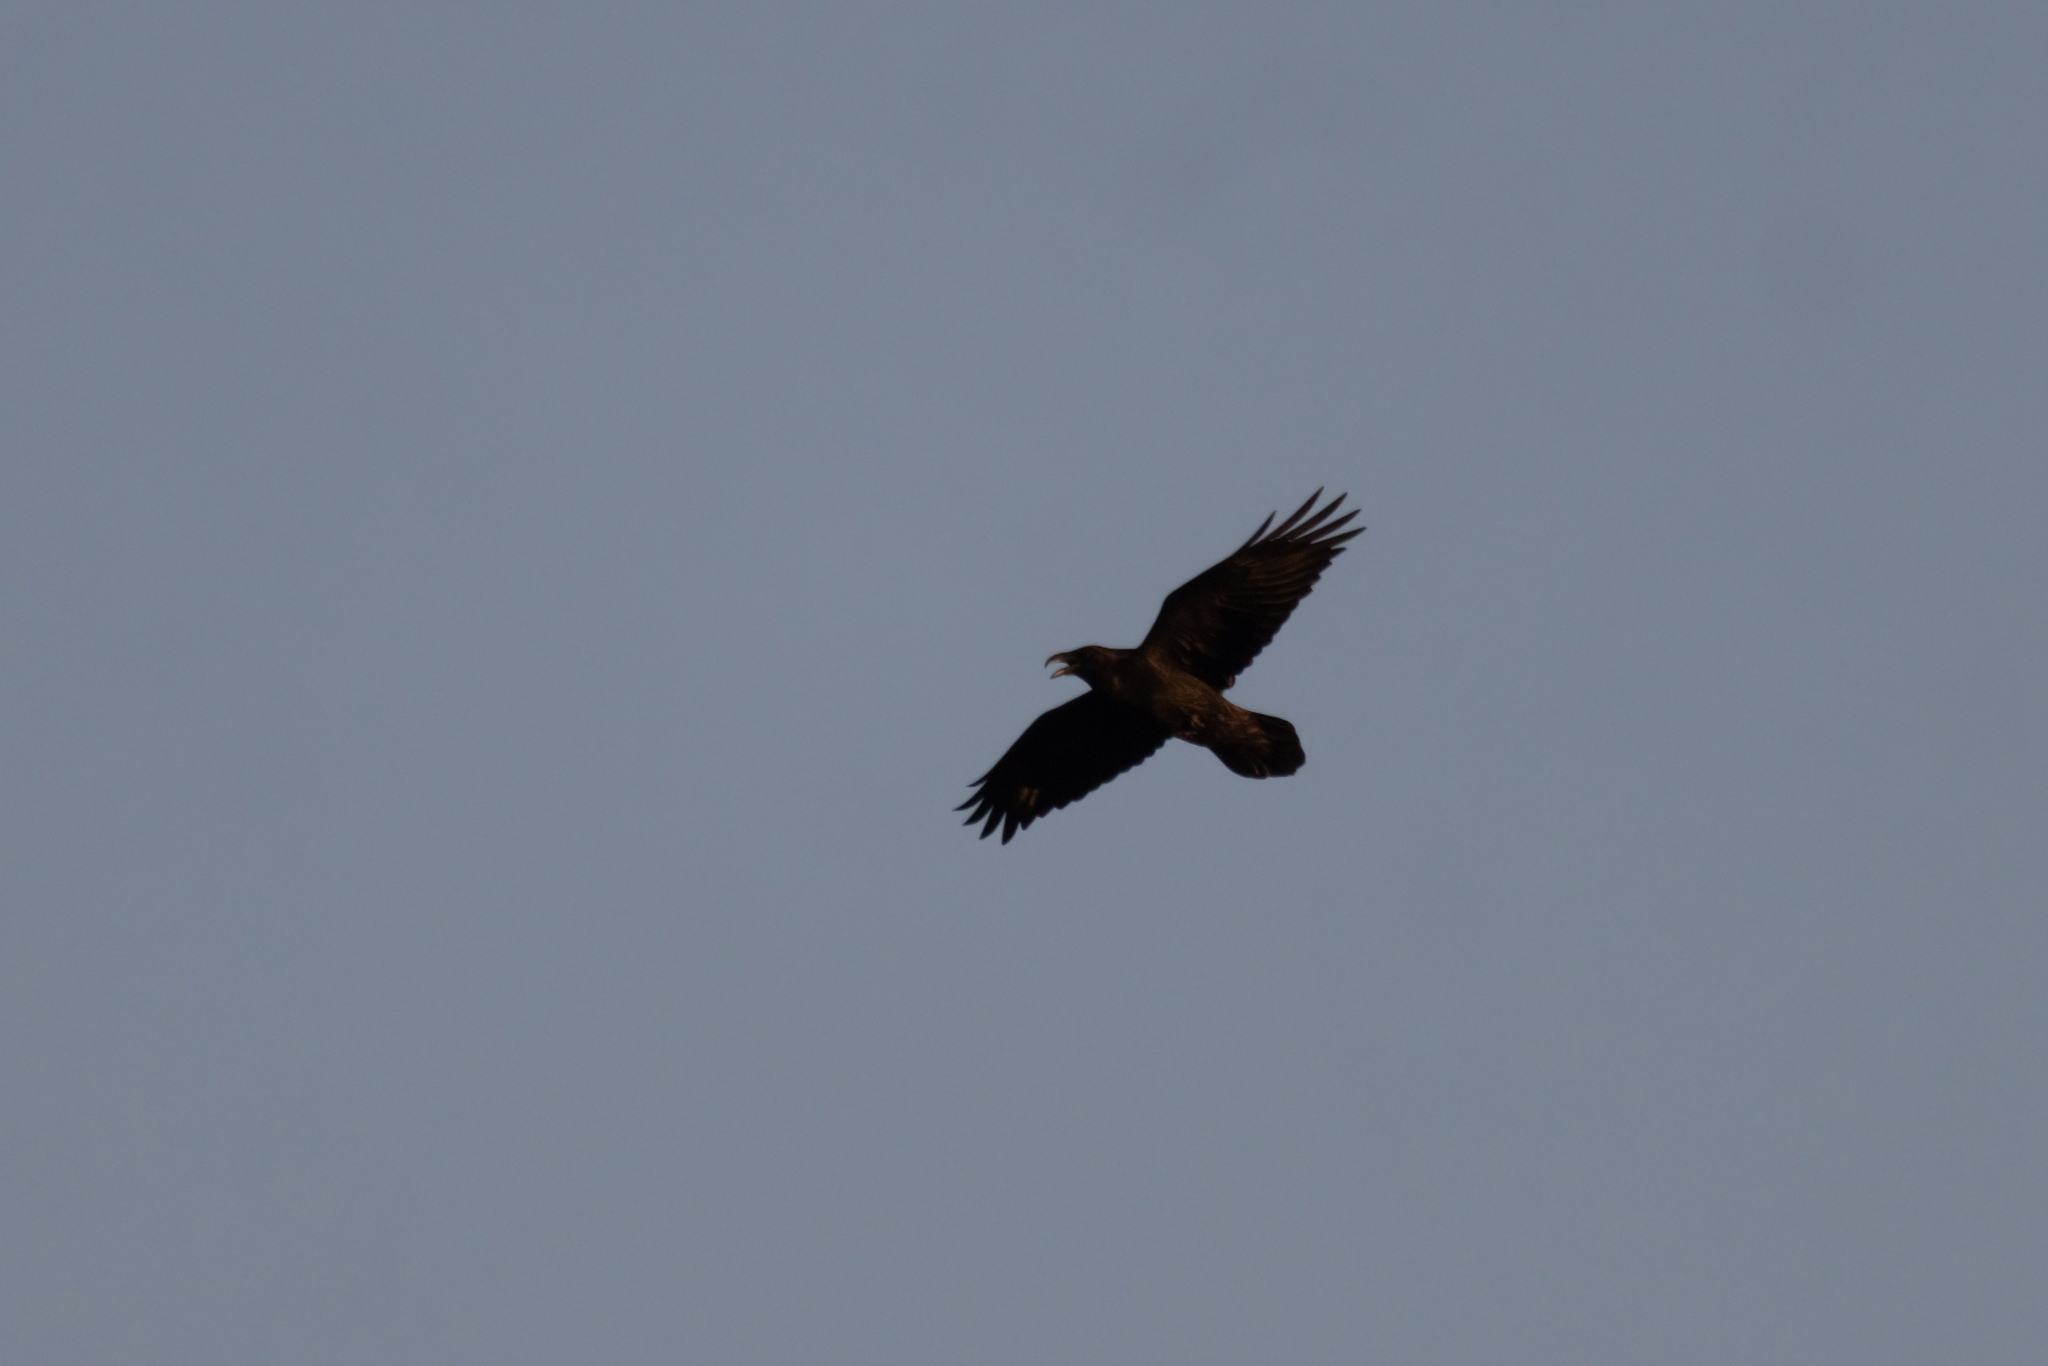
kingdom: Animalia
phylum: Chordata
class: Aves
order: Passeriformes
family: Corvidae
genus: Corvus
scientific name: Corvus corax
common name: Common raven
